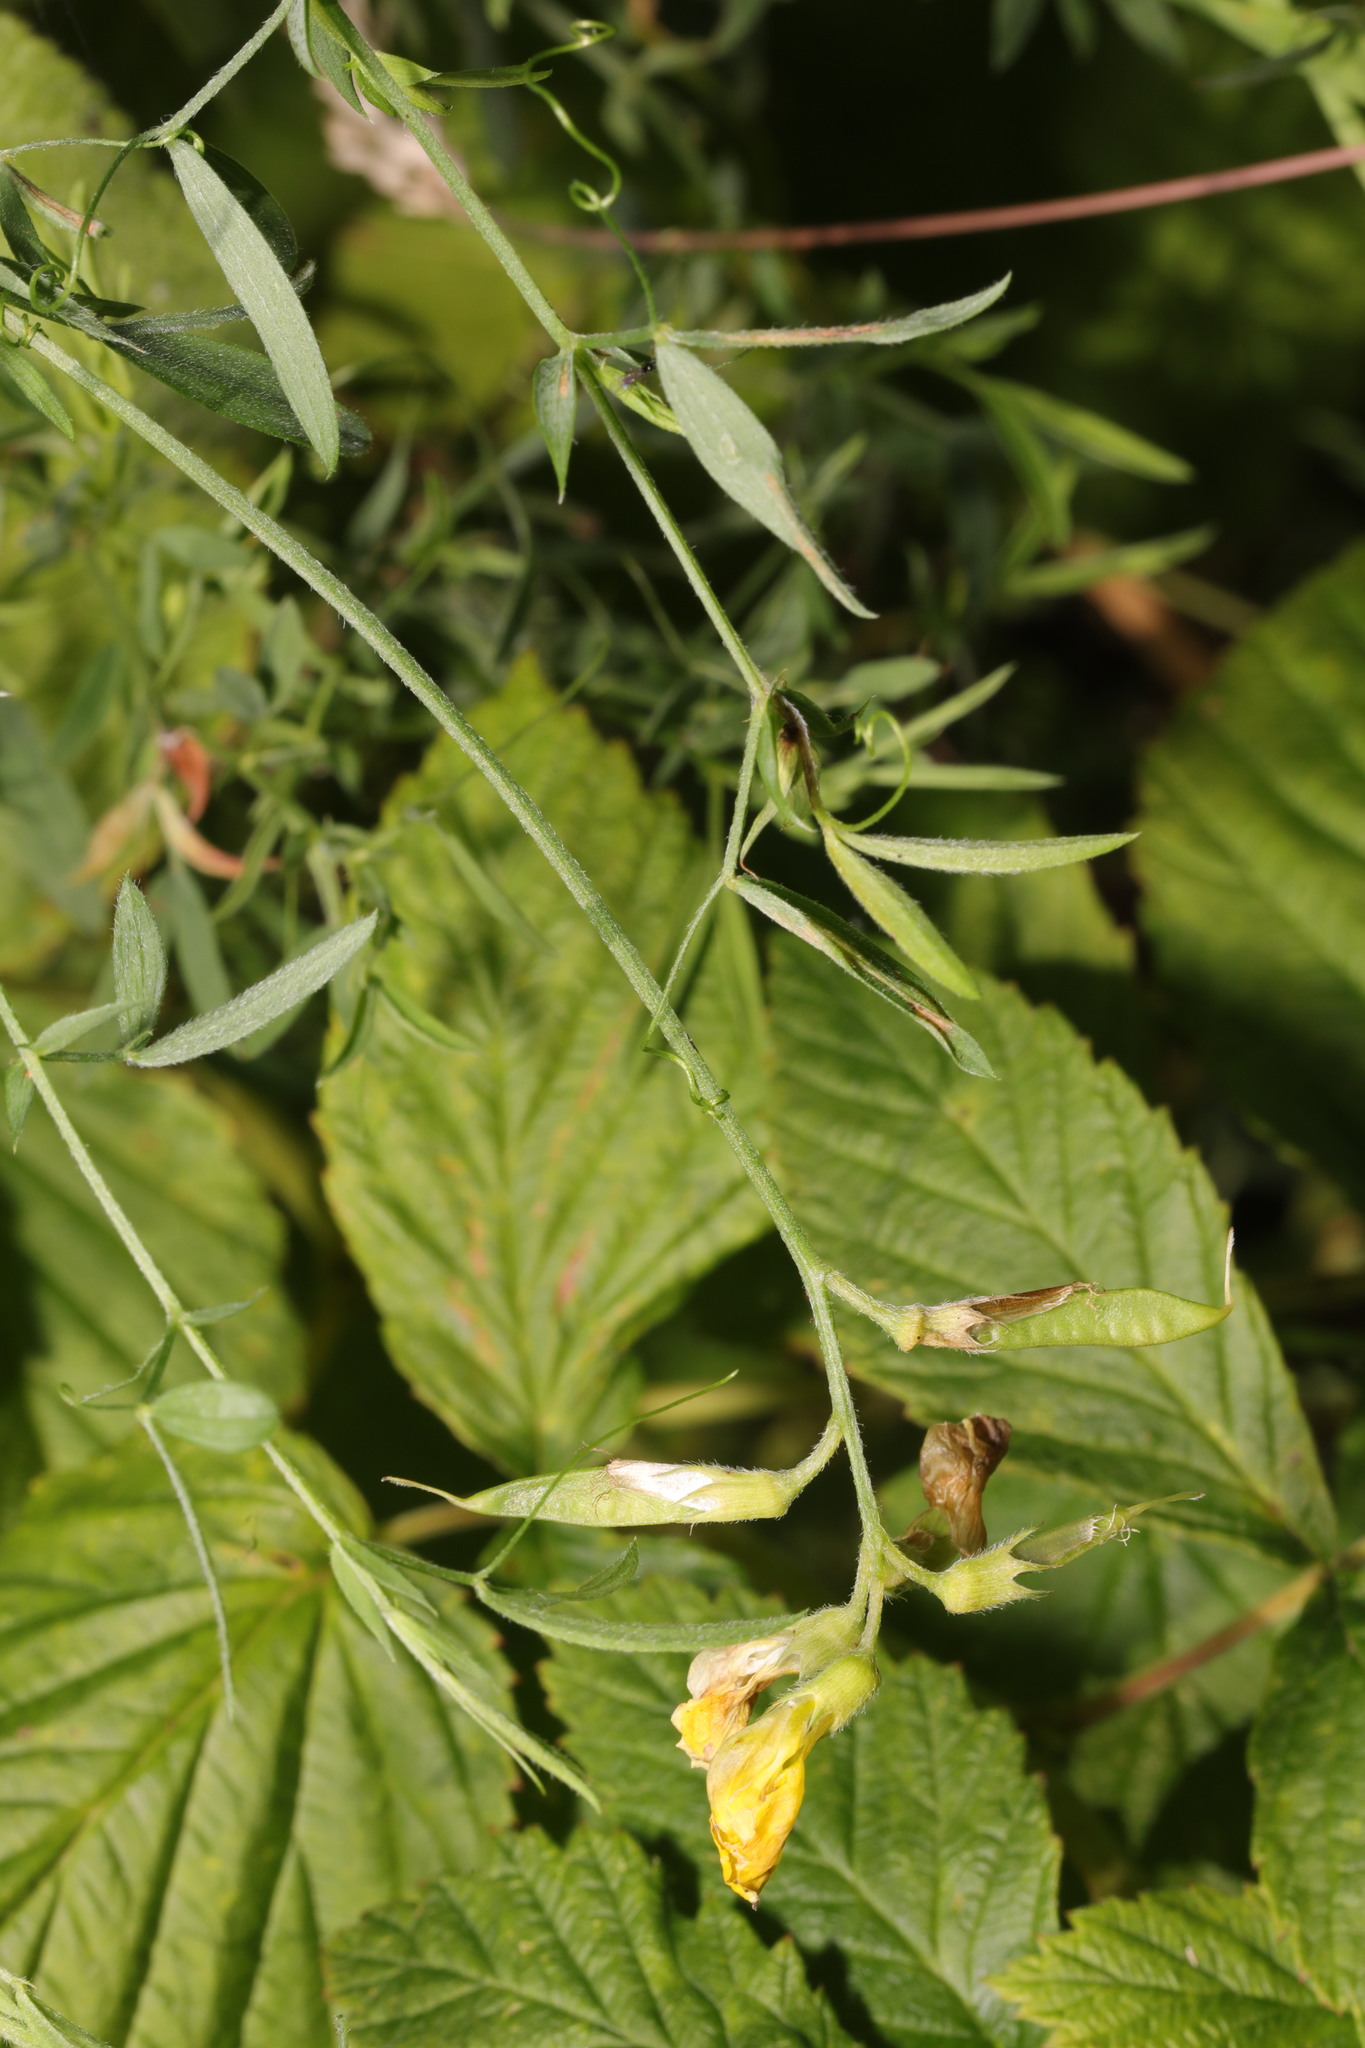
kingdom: Plantae
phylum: Tracheophyta
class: Magnoliopsida
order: Fabales
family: Fabaceae
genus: Lathyrus
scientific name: Lathyrus pratensis
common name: Meadow vetchling
